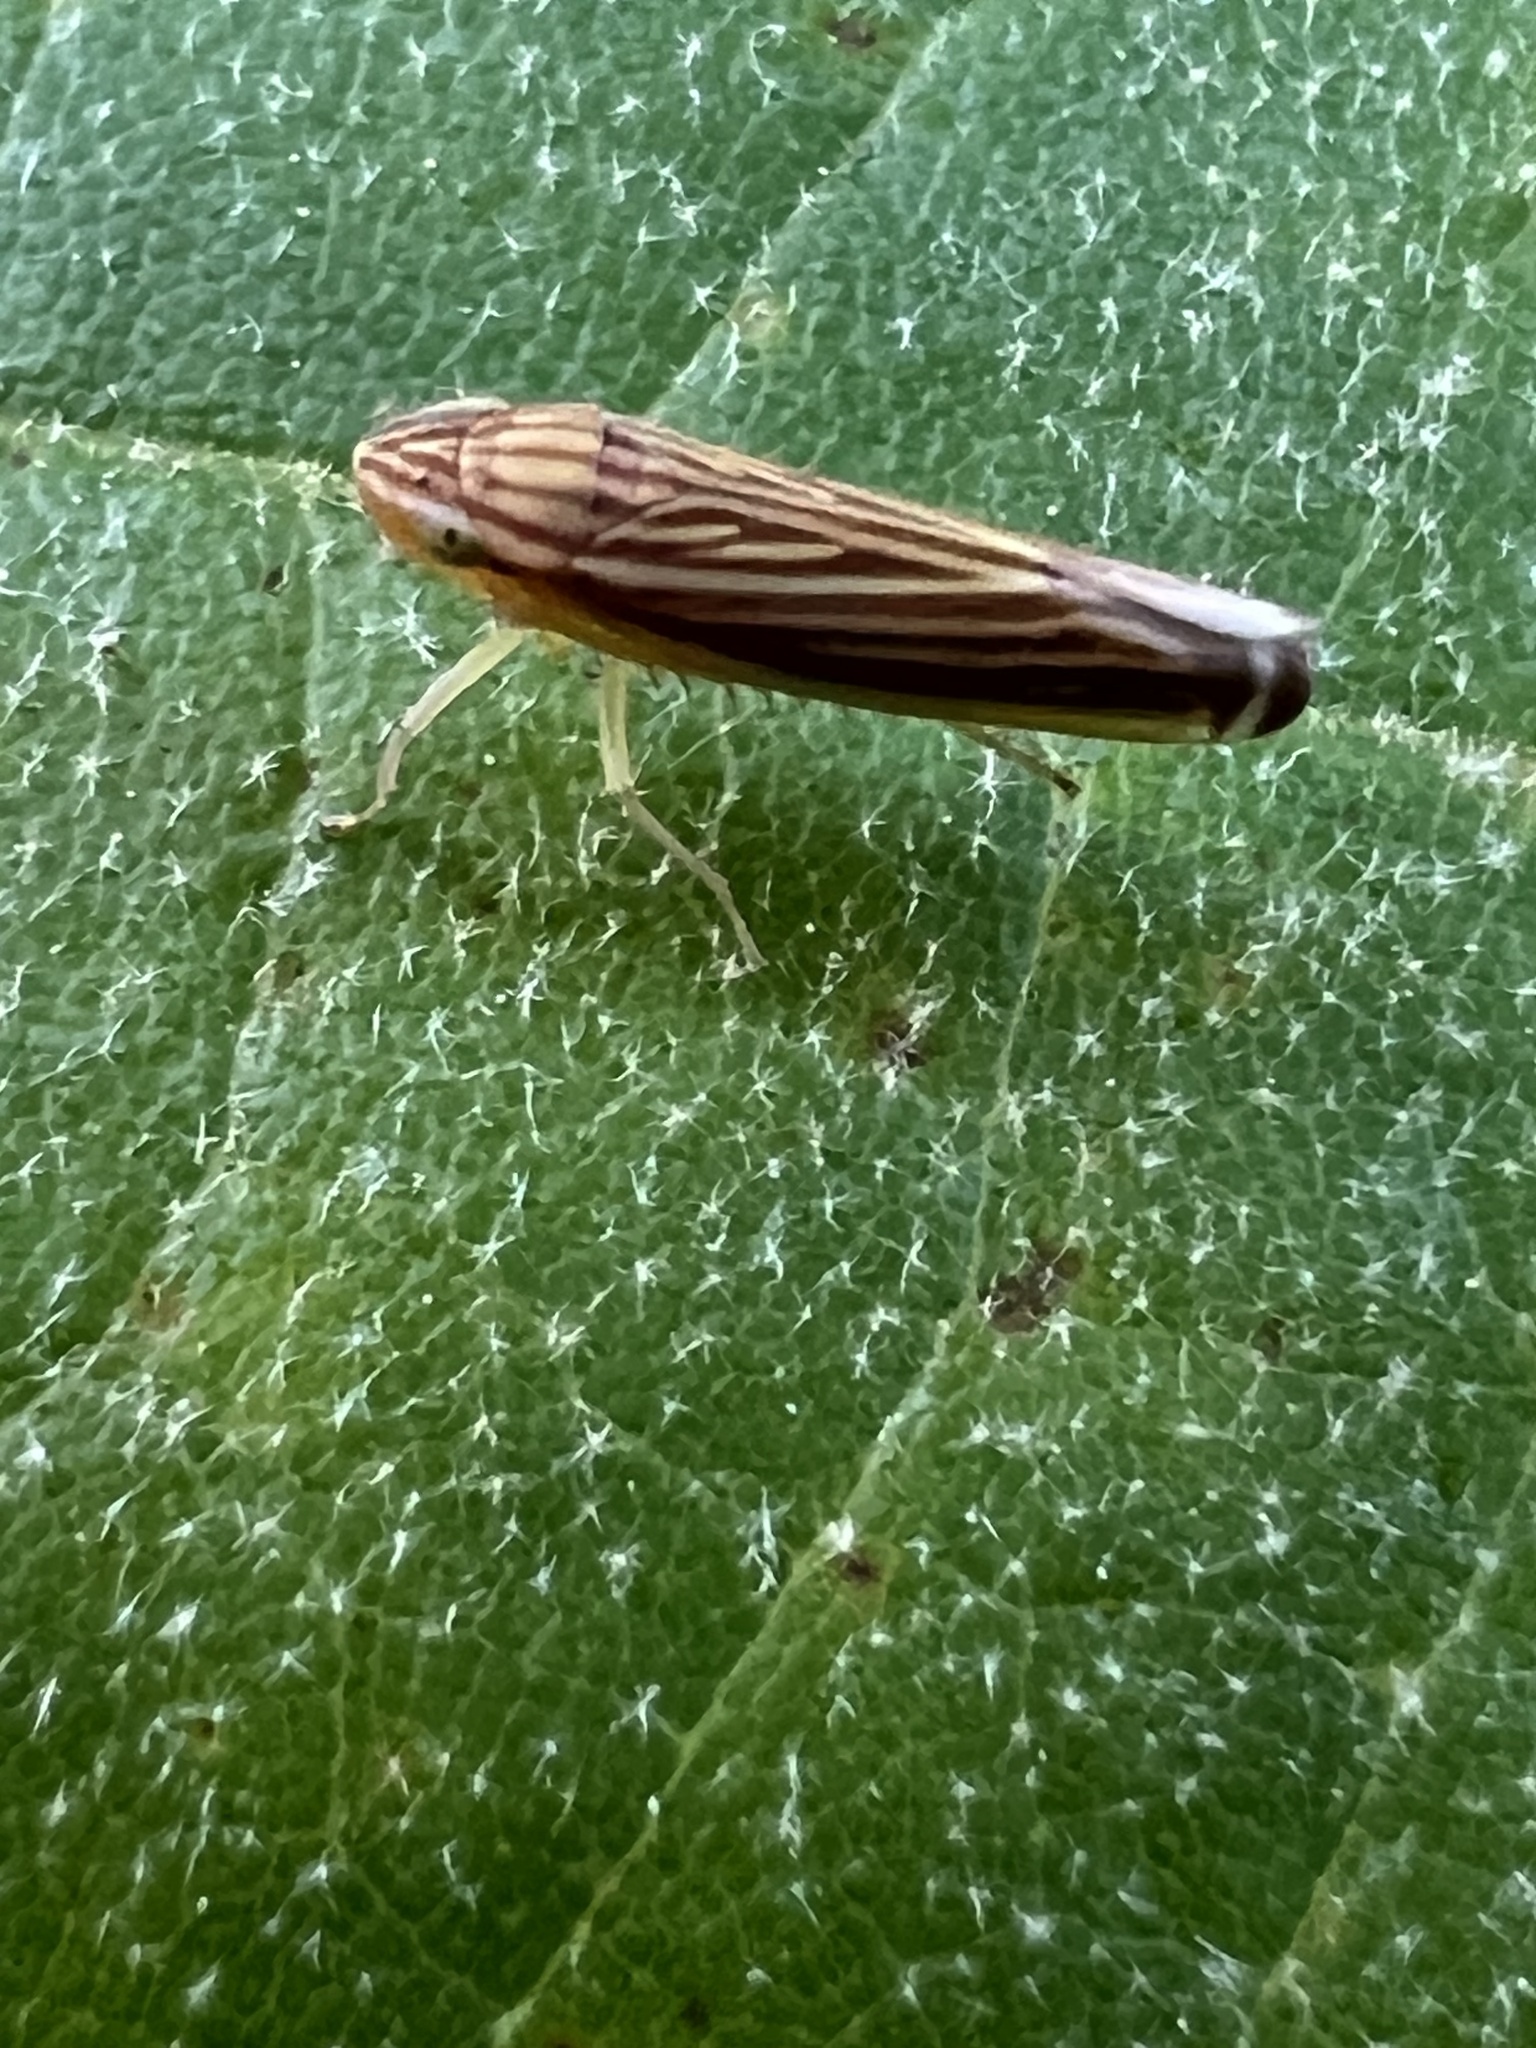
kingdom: Animalia
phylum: Arthropoda
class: Insecta
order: Hemiptera
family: Cicadellidae
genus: Sibovia
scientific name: Sibovia occatoria
